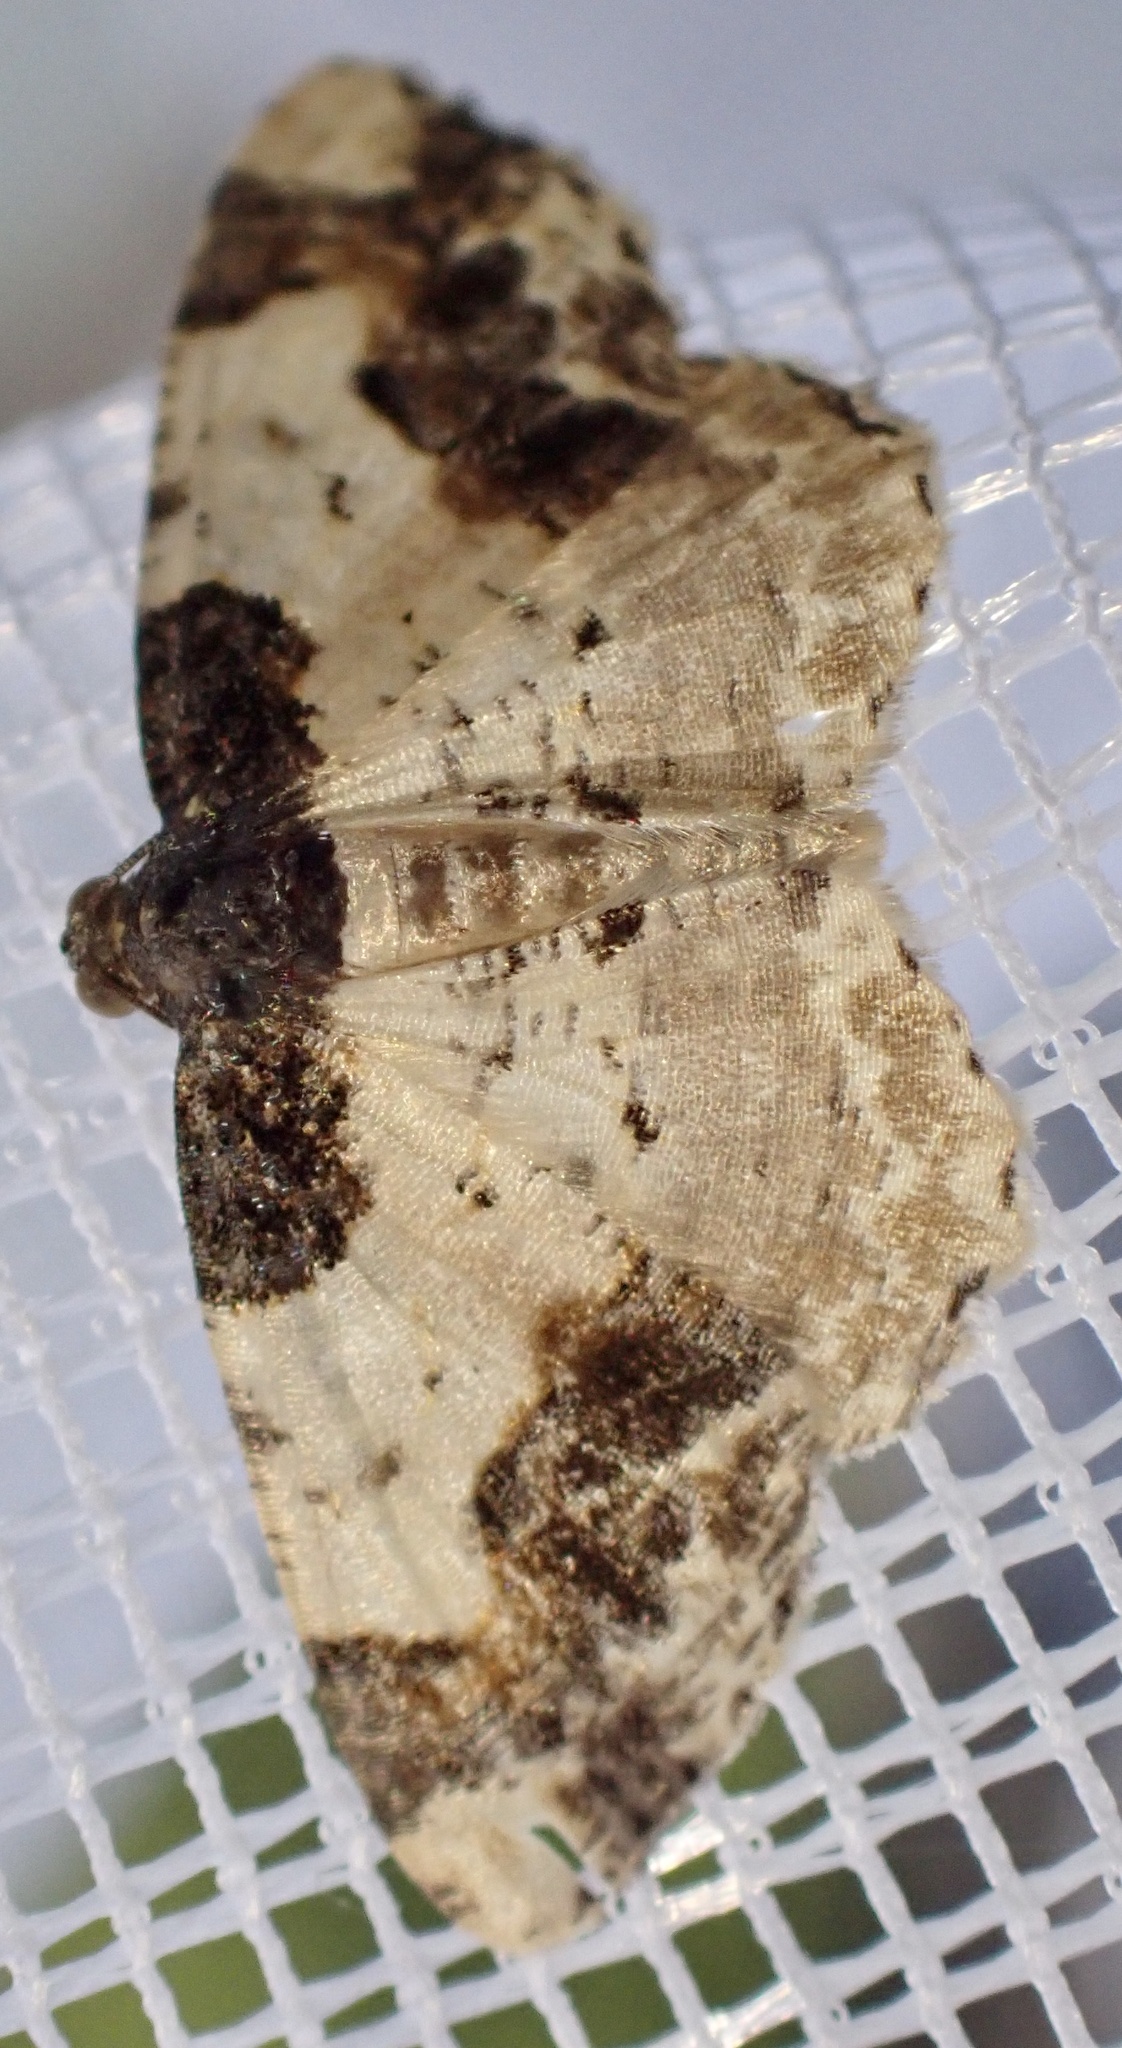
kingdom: Animalia
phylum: Arthropoda
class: Insecta
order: Lepidoptera
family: Geometridae
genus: Ligdia
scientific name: Ligdia adustata
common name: Scorched carpet
